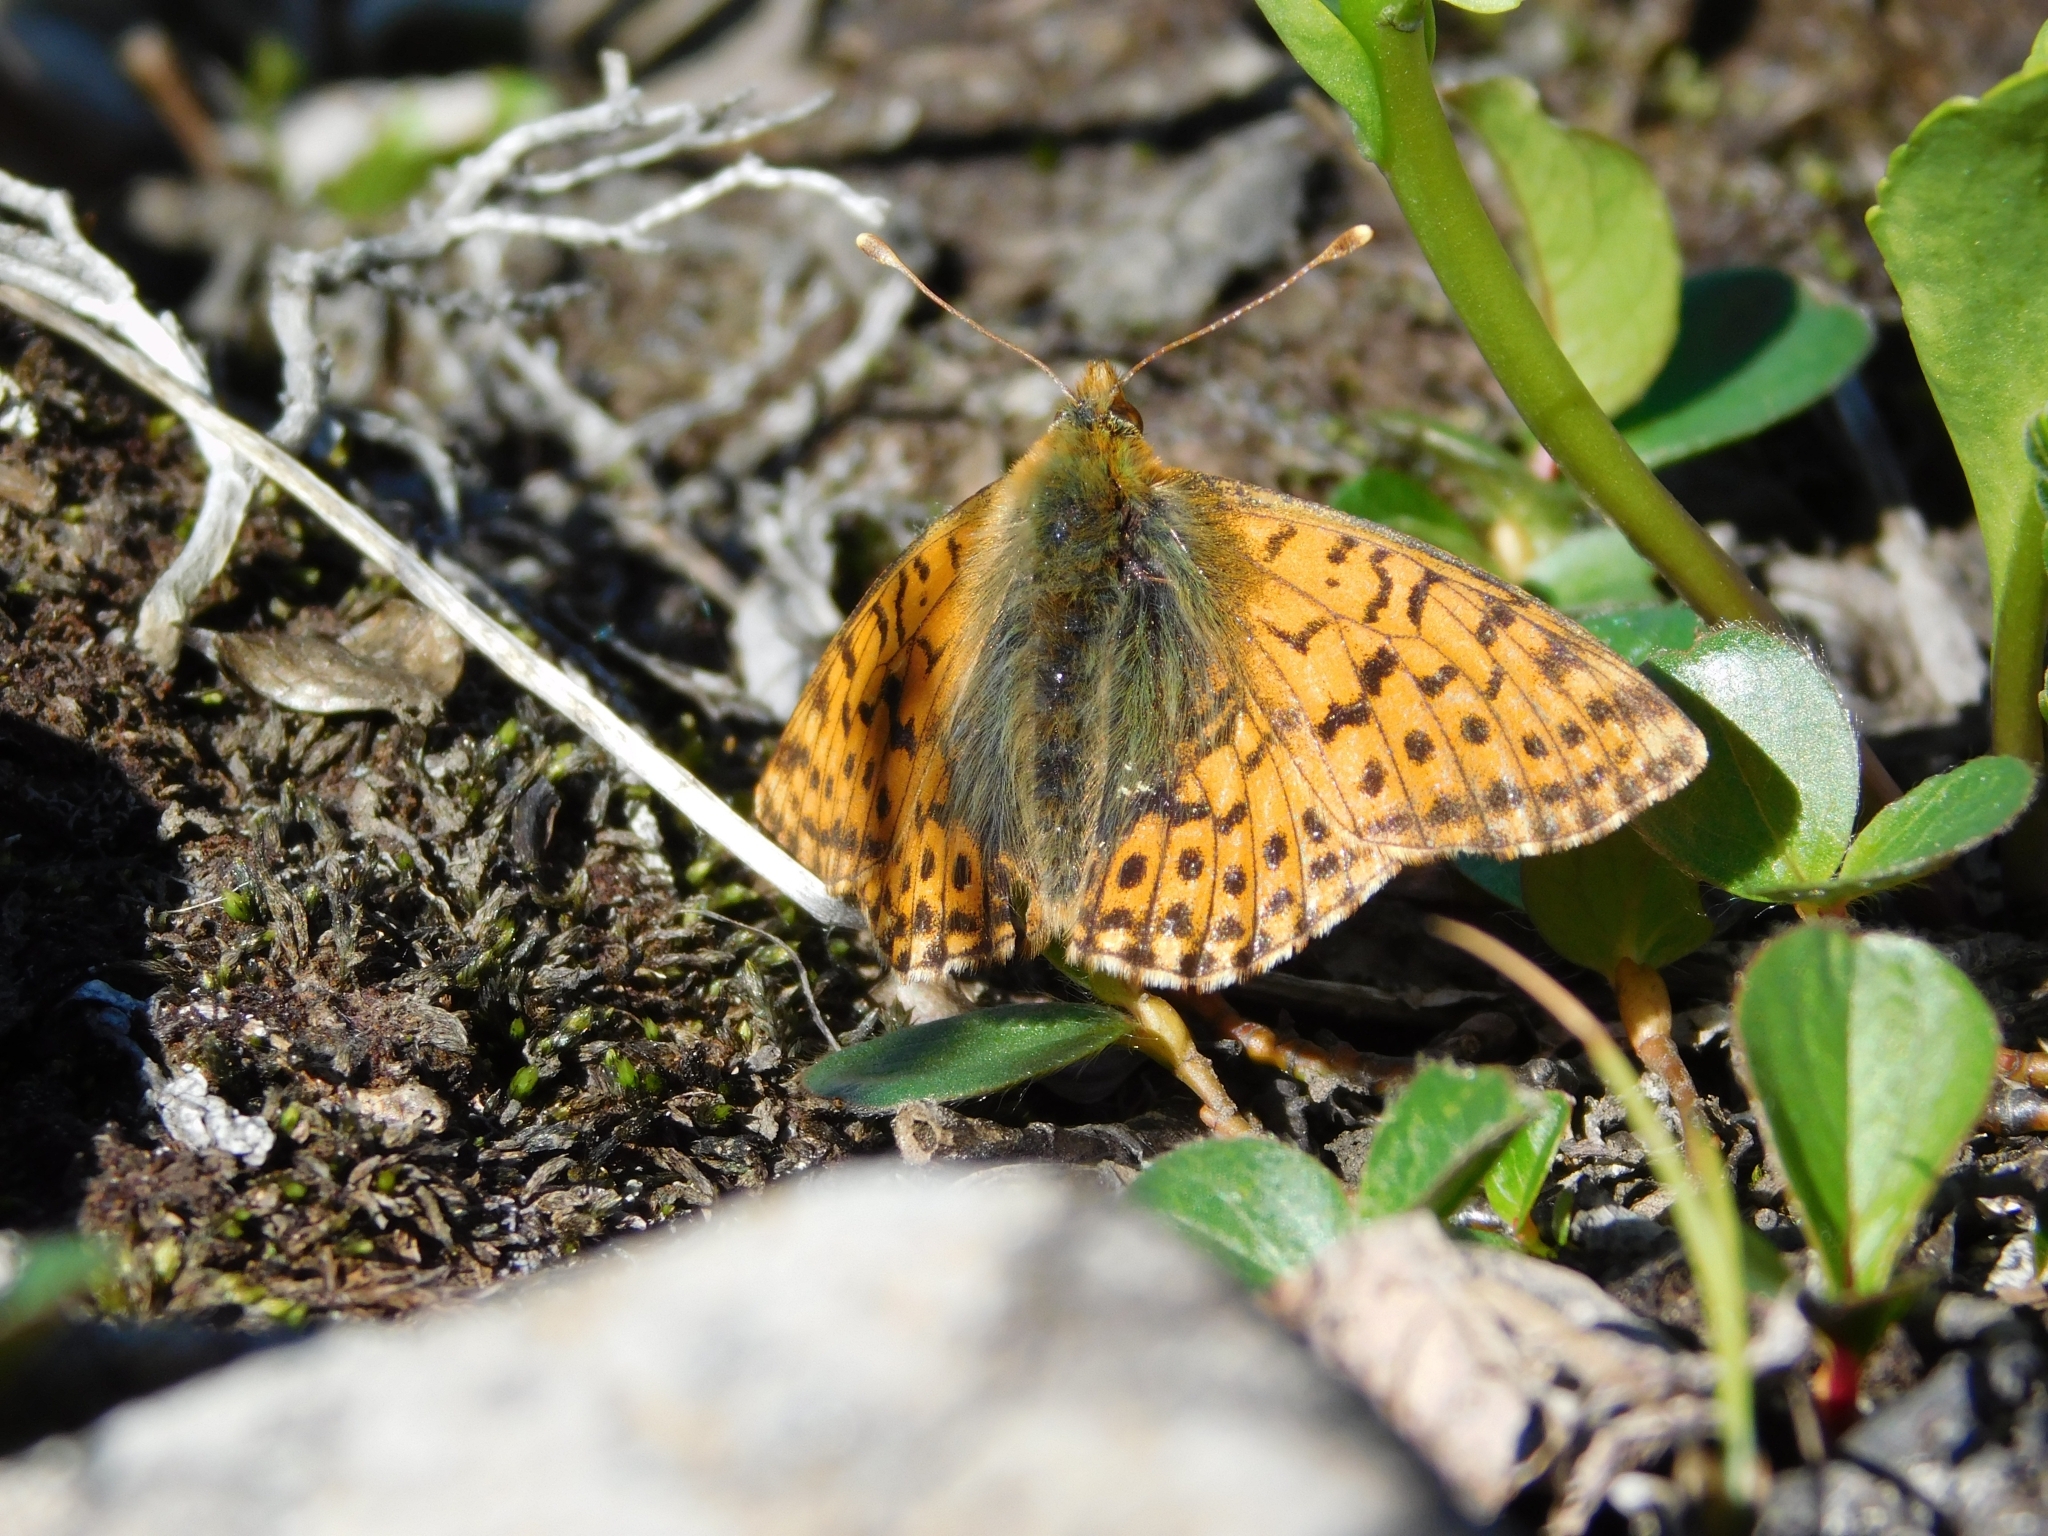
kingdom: Animalia
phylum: Arthropoda
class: Insecta
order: Lepidoptera
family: Nymphalidae
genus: Boloria
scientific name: Boloria alaskensis
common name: Alaskan fritillary
